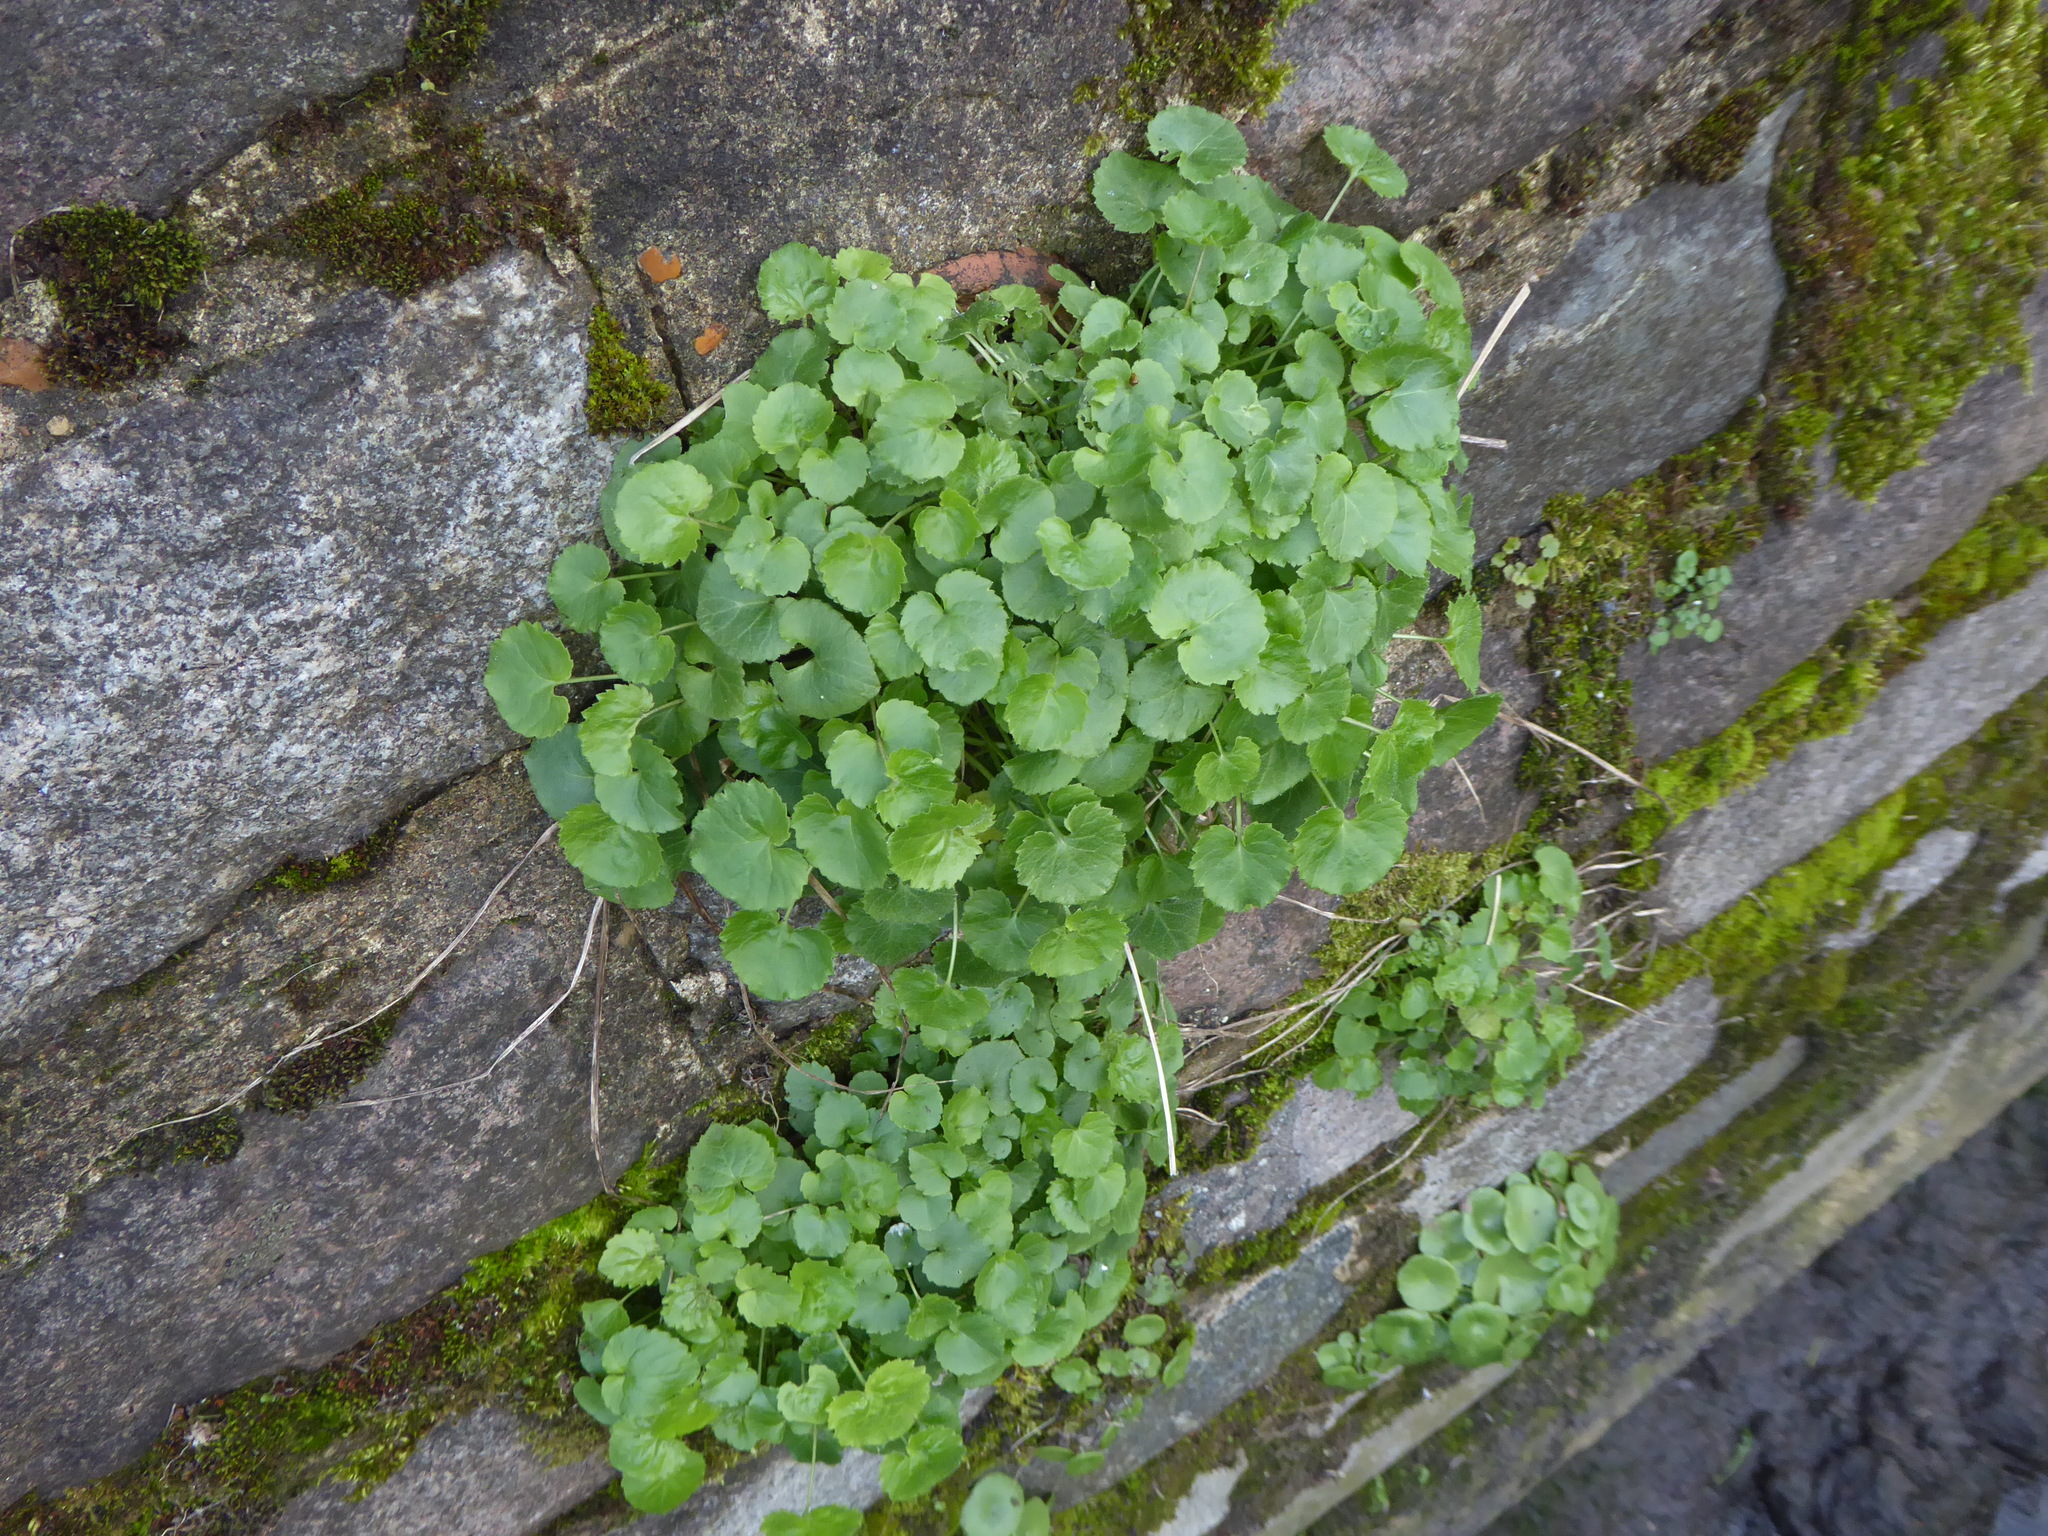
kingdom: Plantae
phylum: Tracheophyta
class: Magnoliopsida
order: Asterales
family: Campanulaceae
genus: Campanula
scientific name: Campanula poscharskyana
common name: Trailing bellflower
